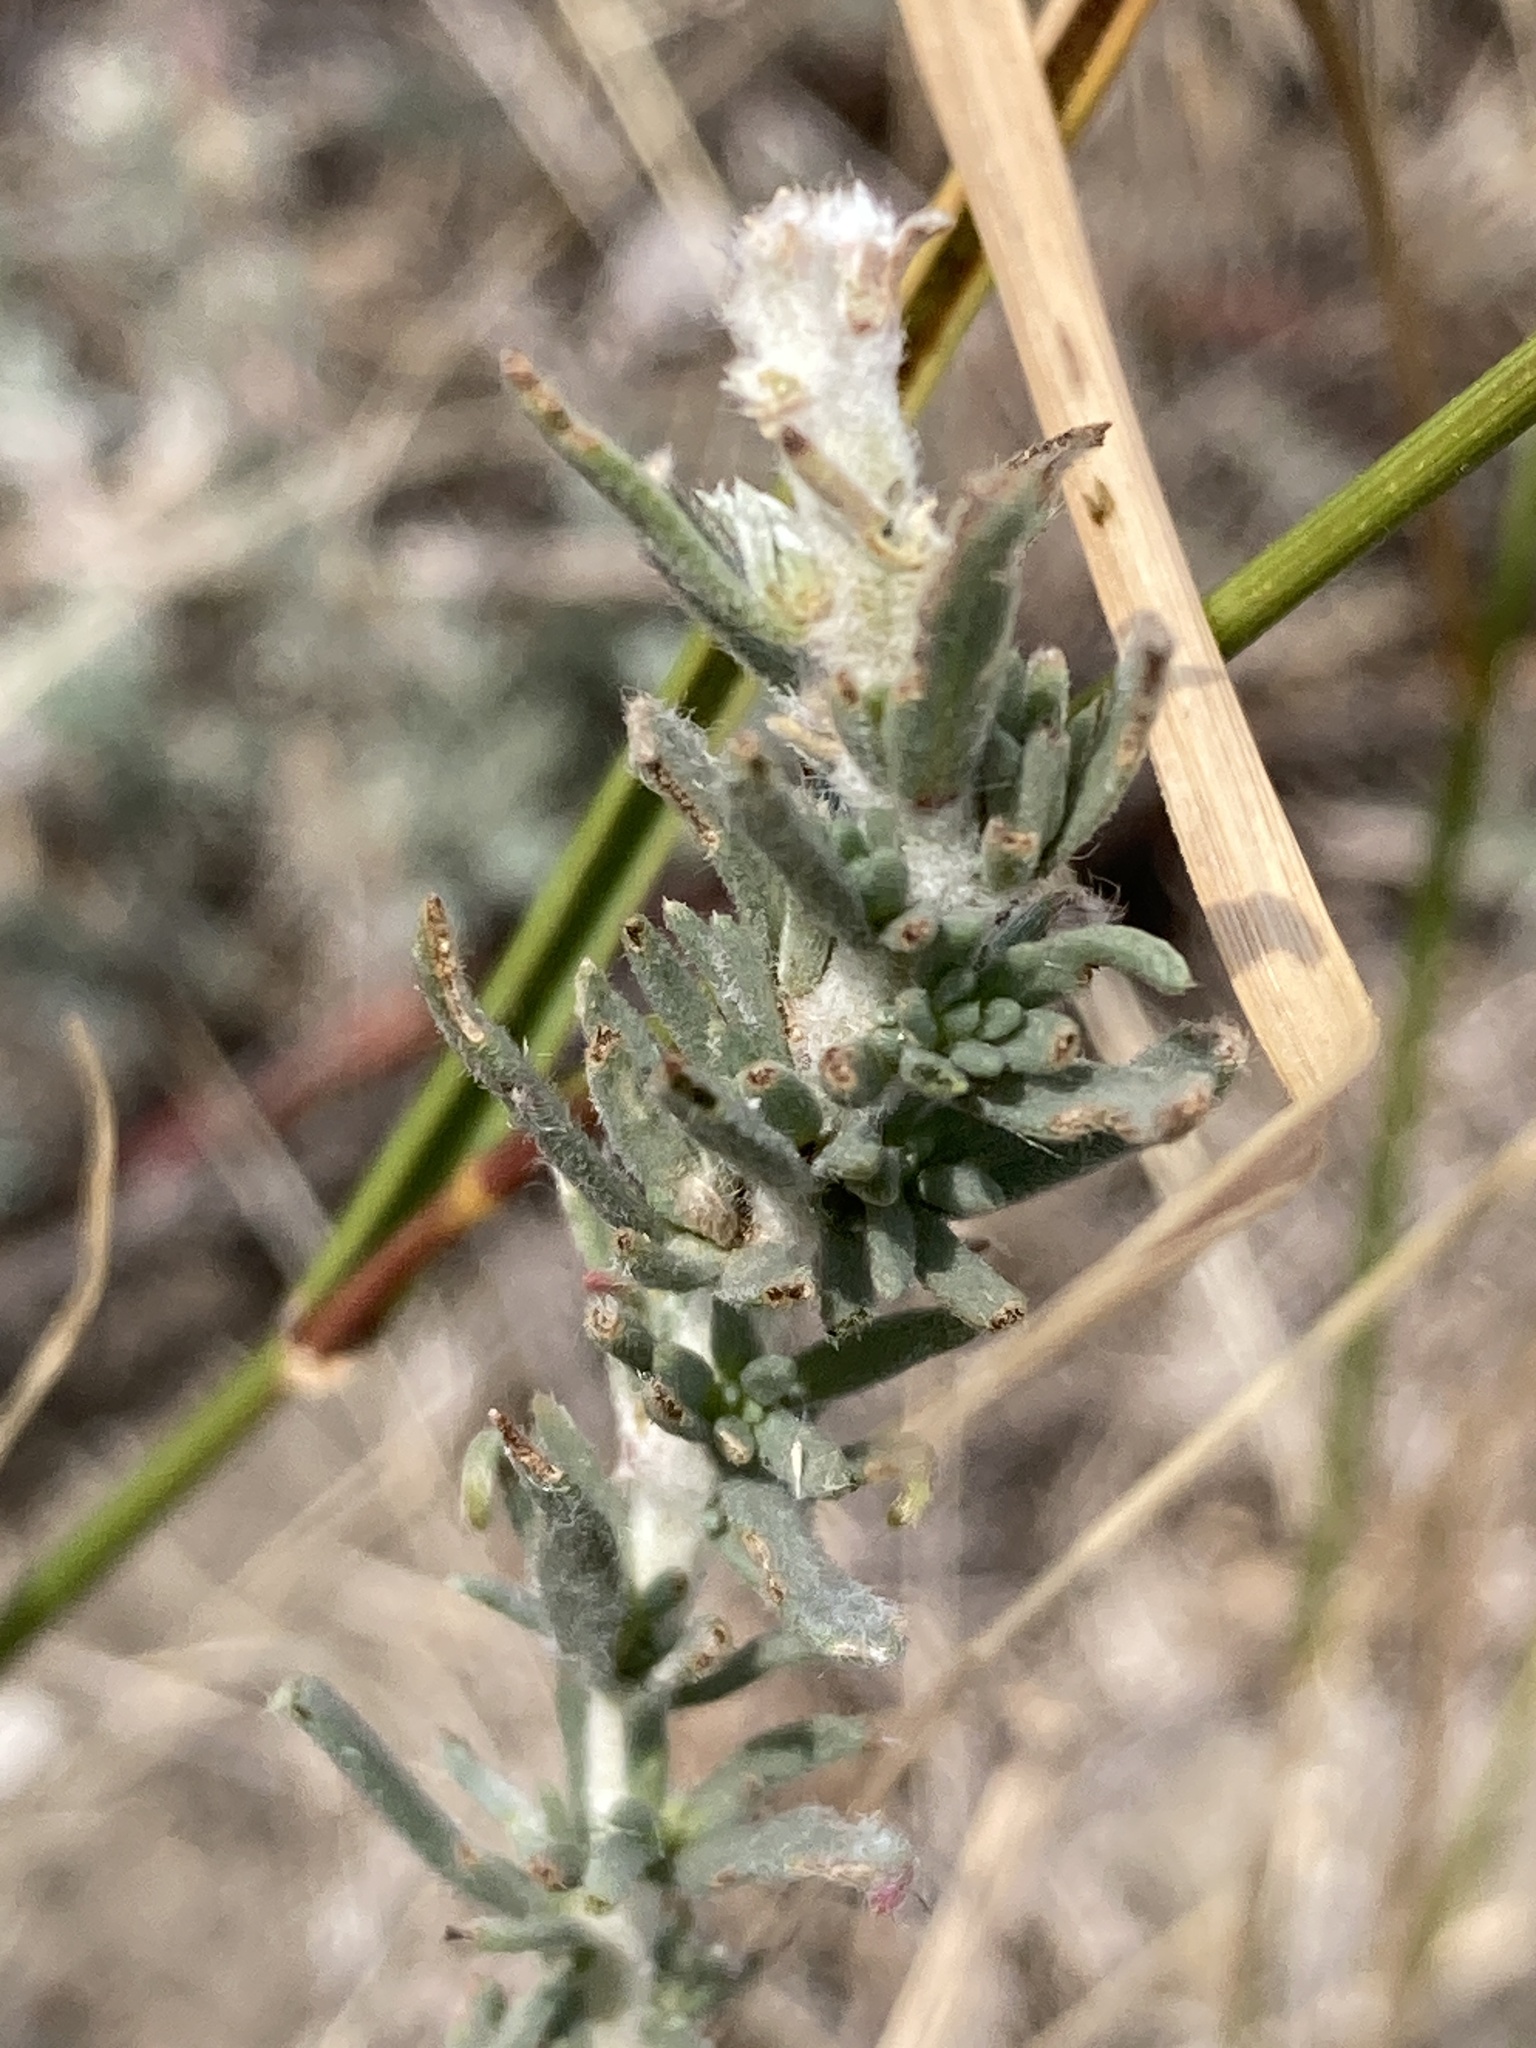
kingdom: Plantae
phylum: Tracheophyta
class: Magnoliopsida
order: Caryophyllales
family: Amaranthaceae
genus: Bassia
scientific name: Bassia prostrata
